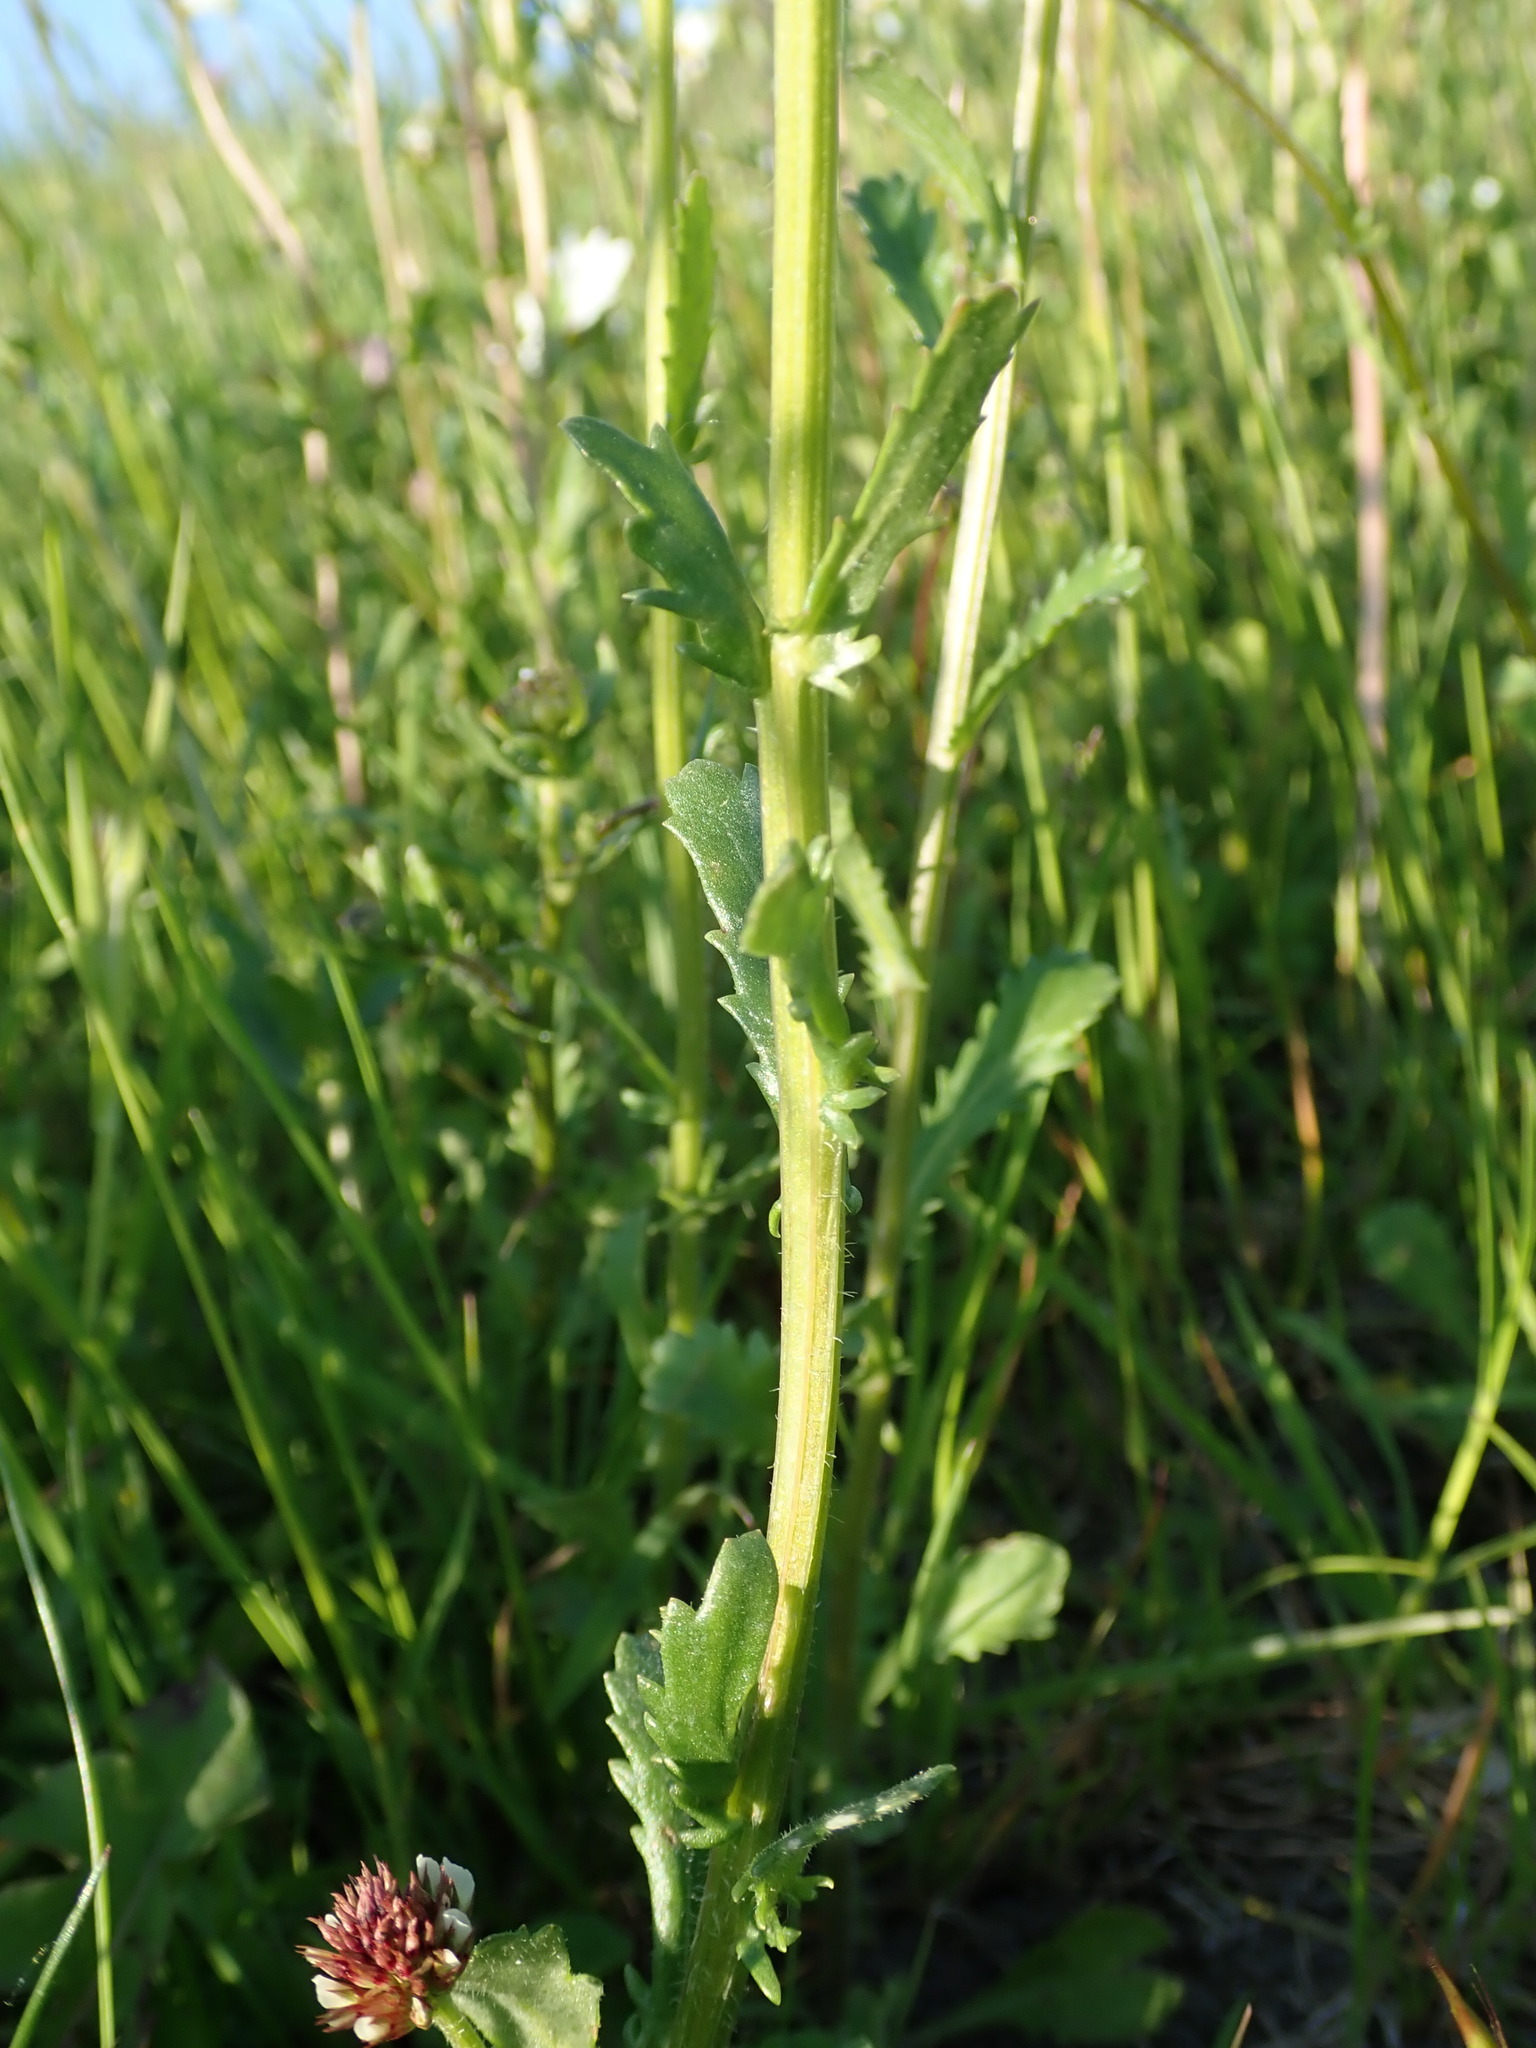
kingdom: Plantae
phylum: Tracheophyta
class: Magnoliopsida
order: Asterales
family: Asteraceae
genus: Leucanthemum
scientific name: Leucanthemum vulgare
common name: Oxeye daisy
